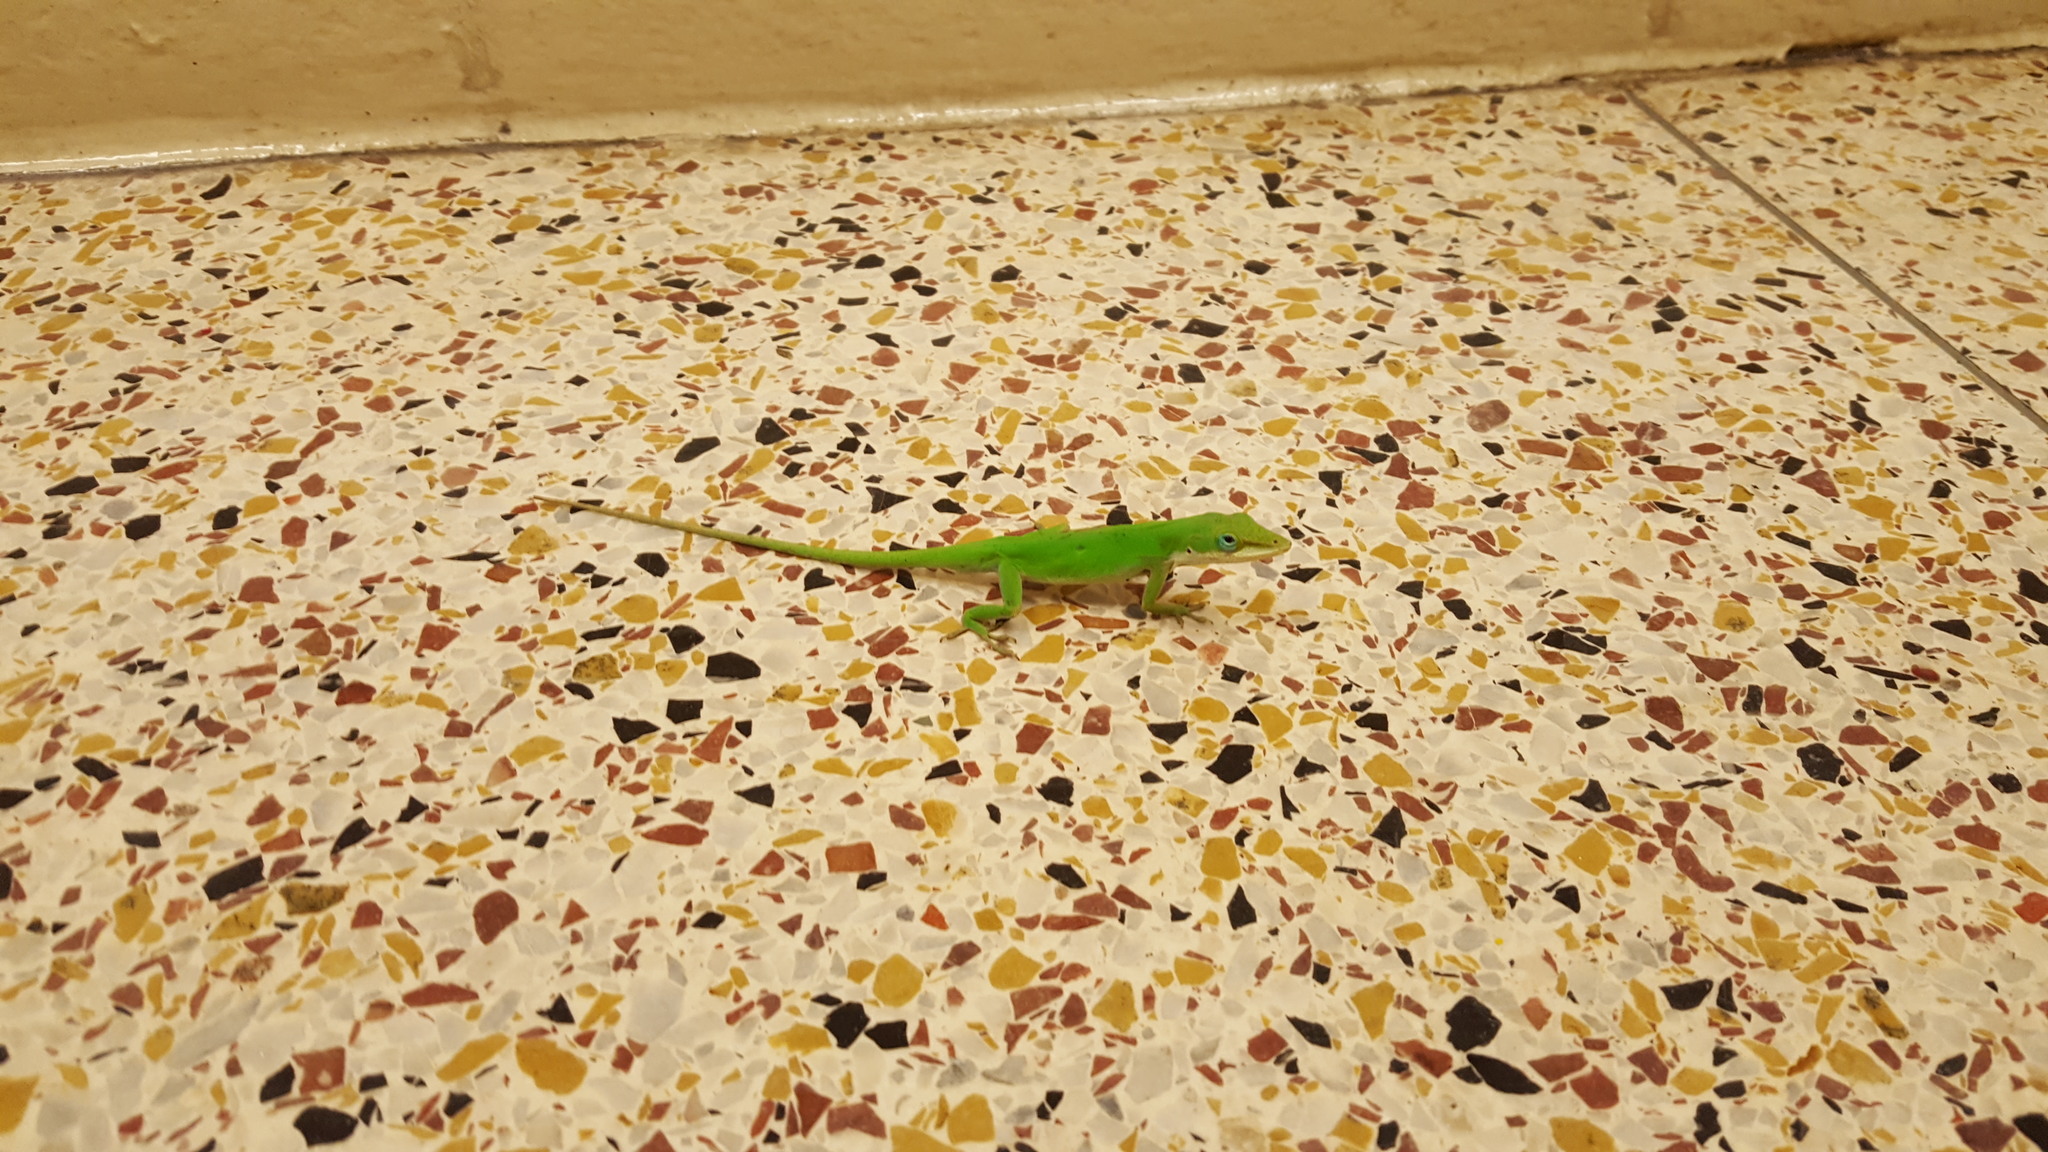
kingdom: Animalia
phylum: Chordata
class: Squamata
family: Dactyloidae
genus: Anolis
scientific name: Anolis carolinensis
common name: Green anole
